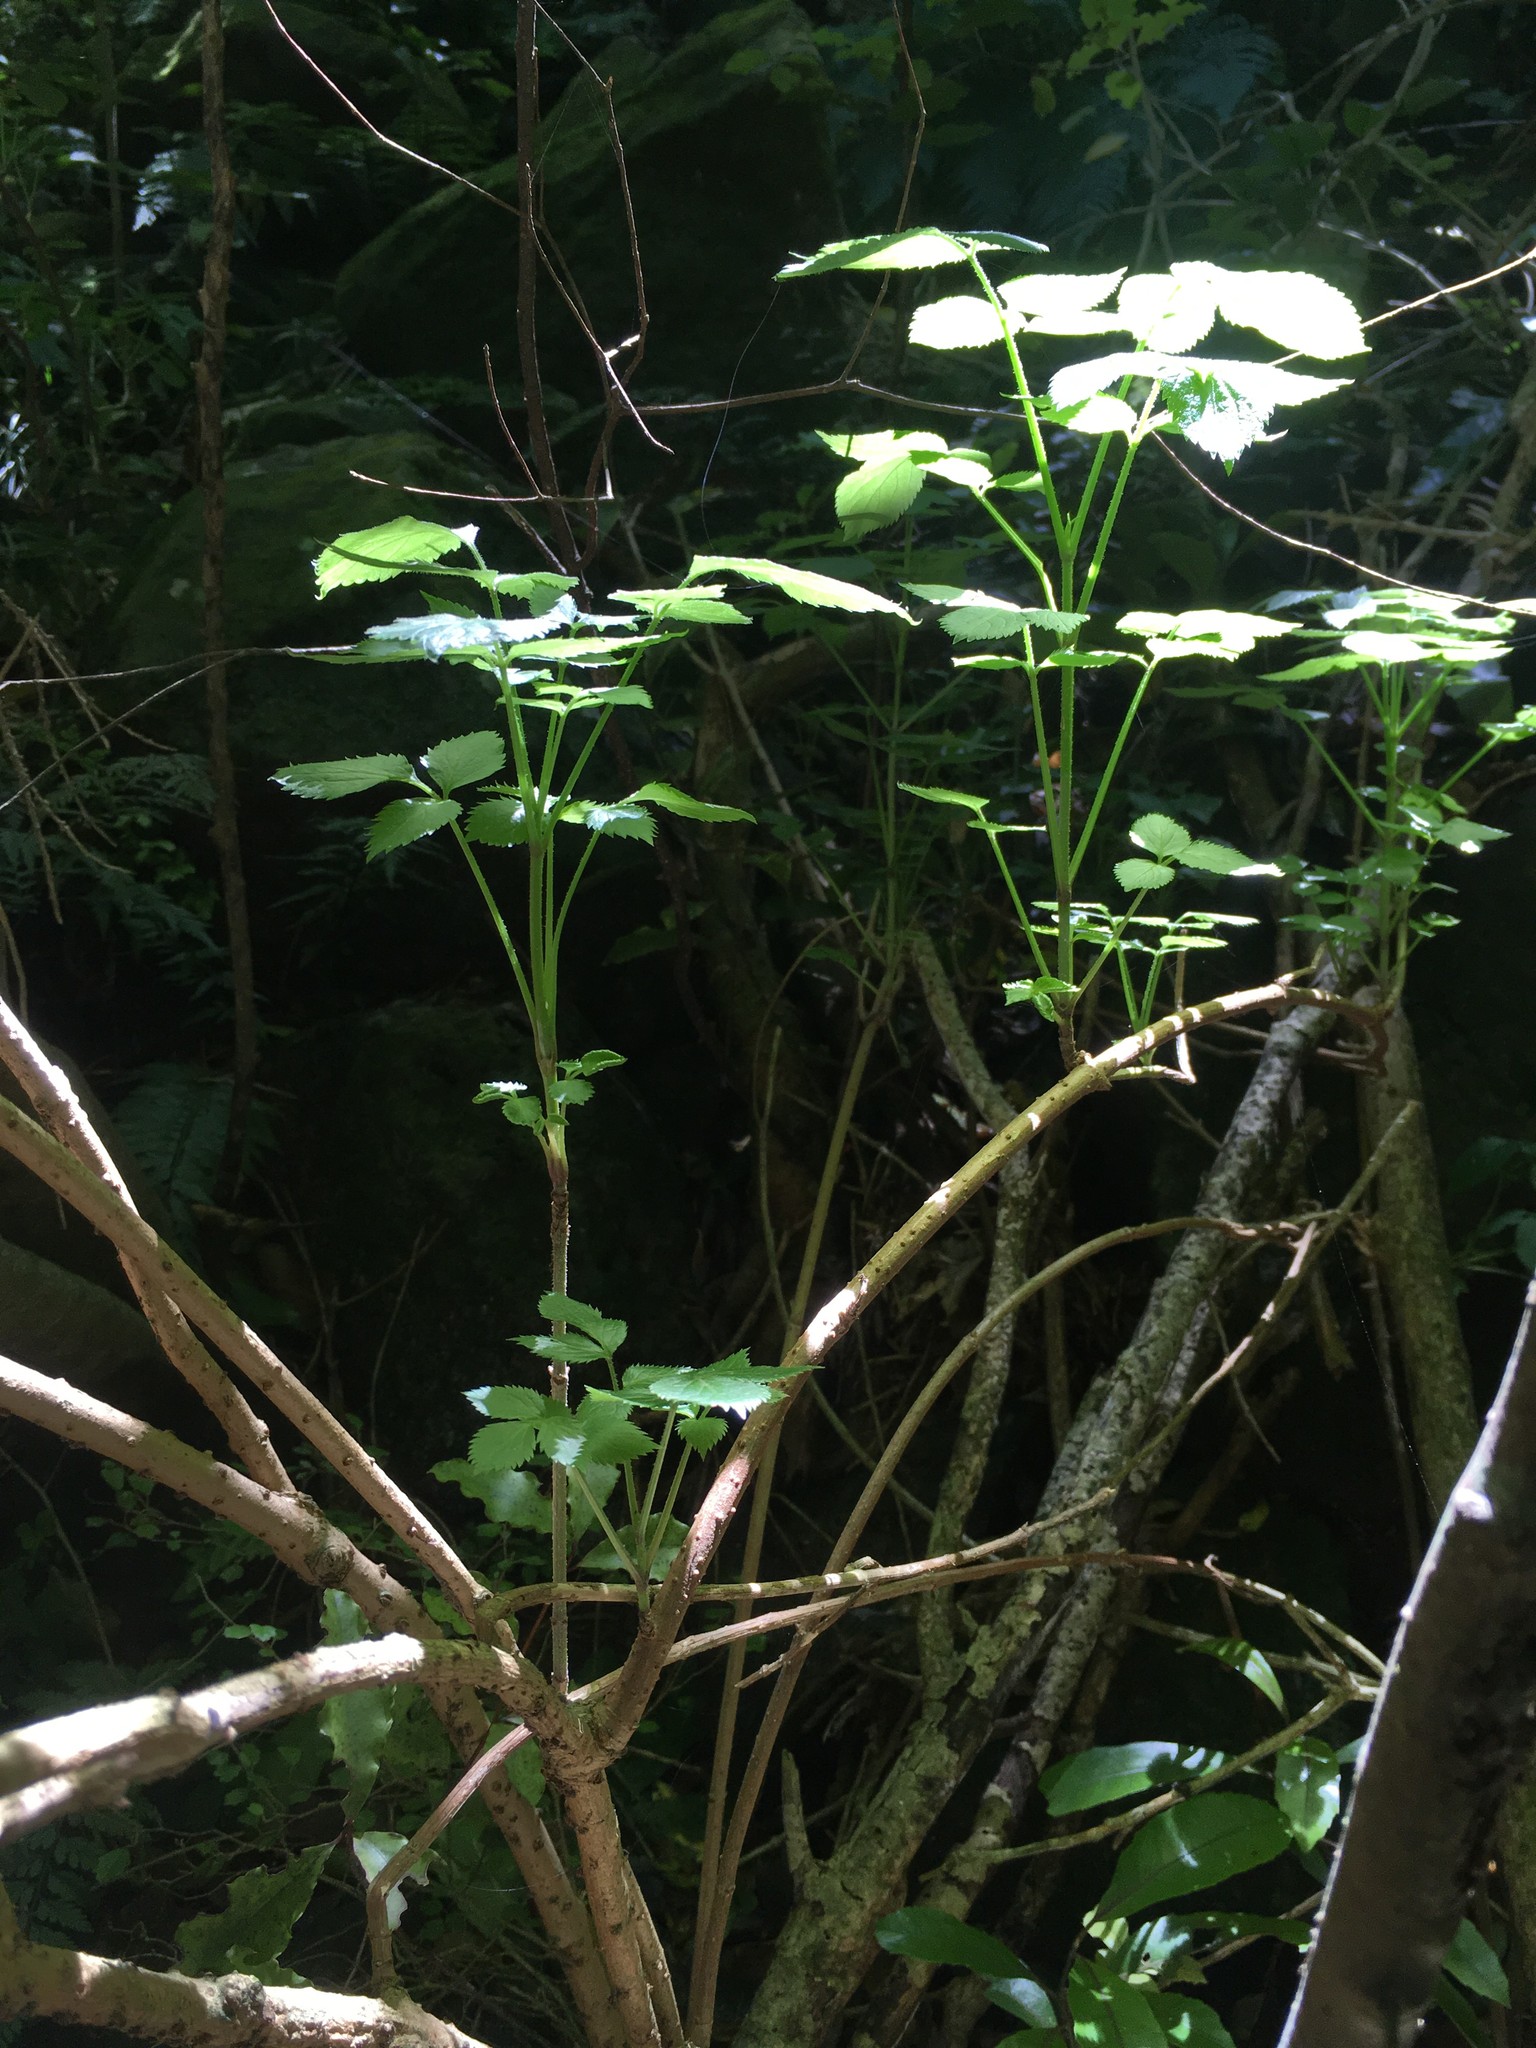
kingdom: Plantae
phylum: Tracheophyta
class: Magnoliopsida
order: Dipsacales
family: Viburnaceae
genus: Sambucus
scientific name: Sambucus nigra
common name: Elder
